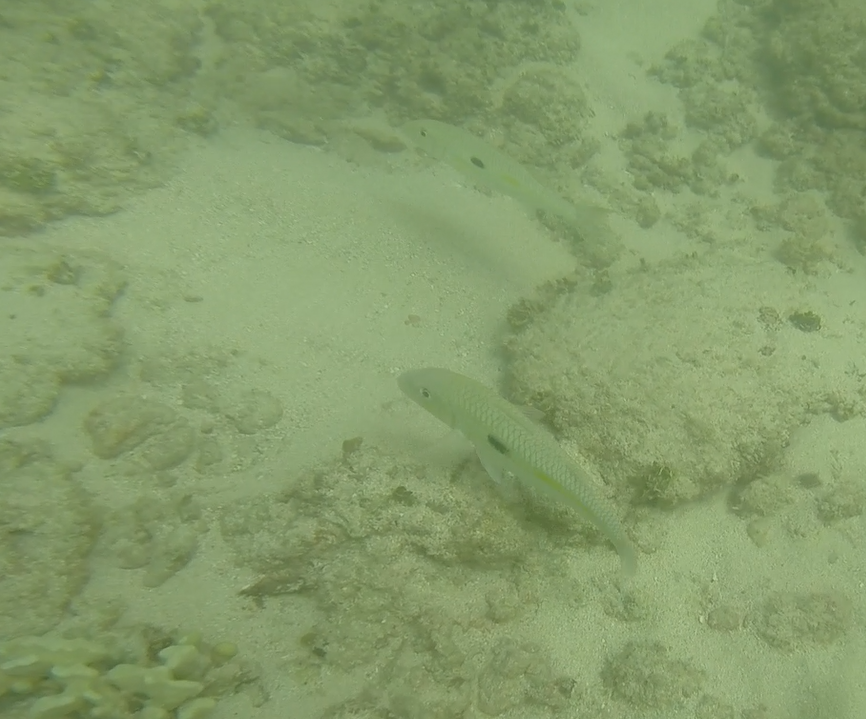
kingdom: Animalia
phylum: Chordata
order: Perciformes
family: Mullidae
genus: Mulloidichthys
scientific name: Mulloidichthys flavolineatus
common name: Yellowstripe goatfish
